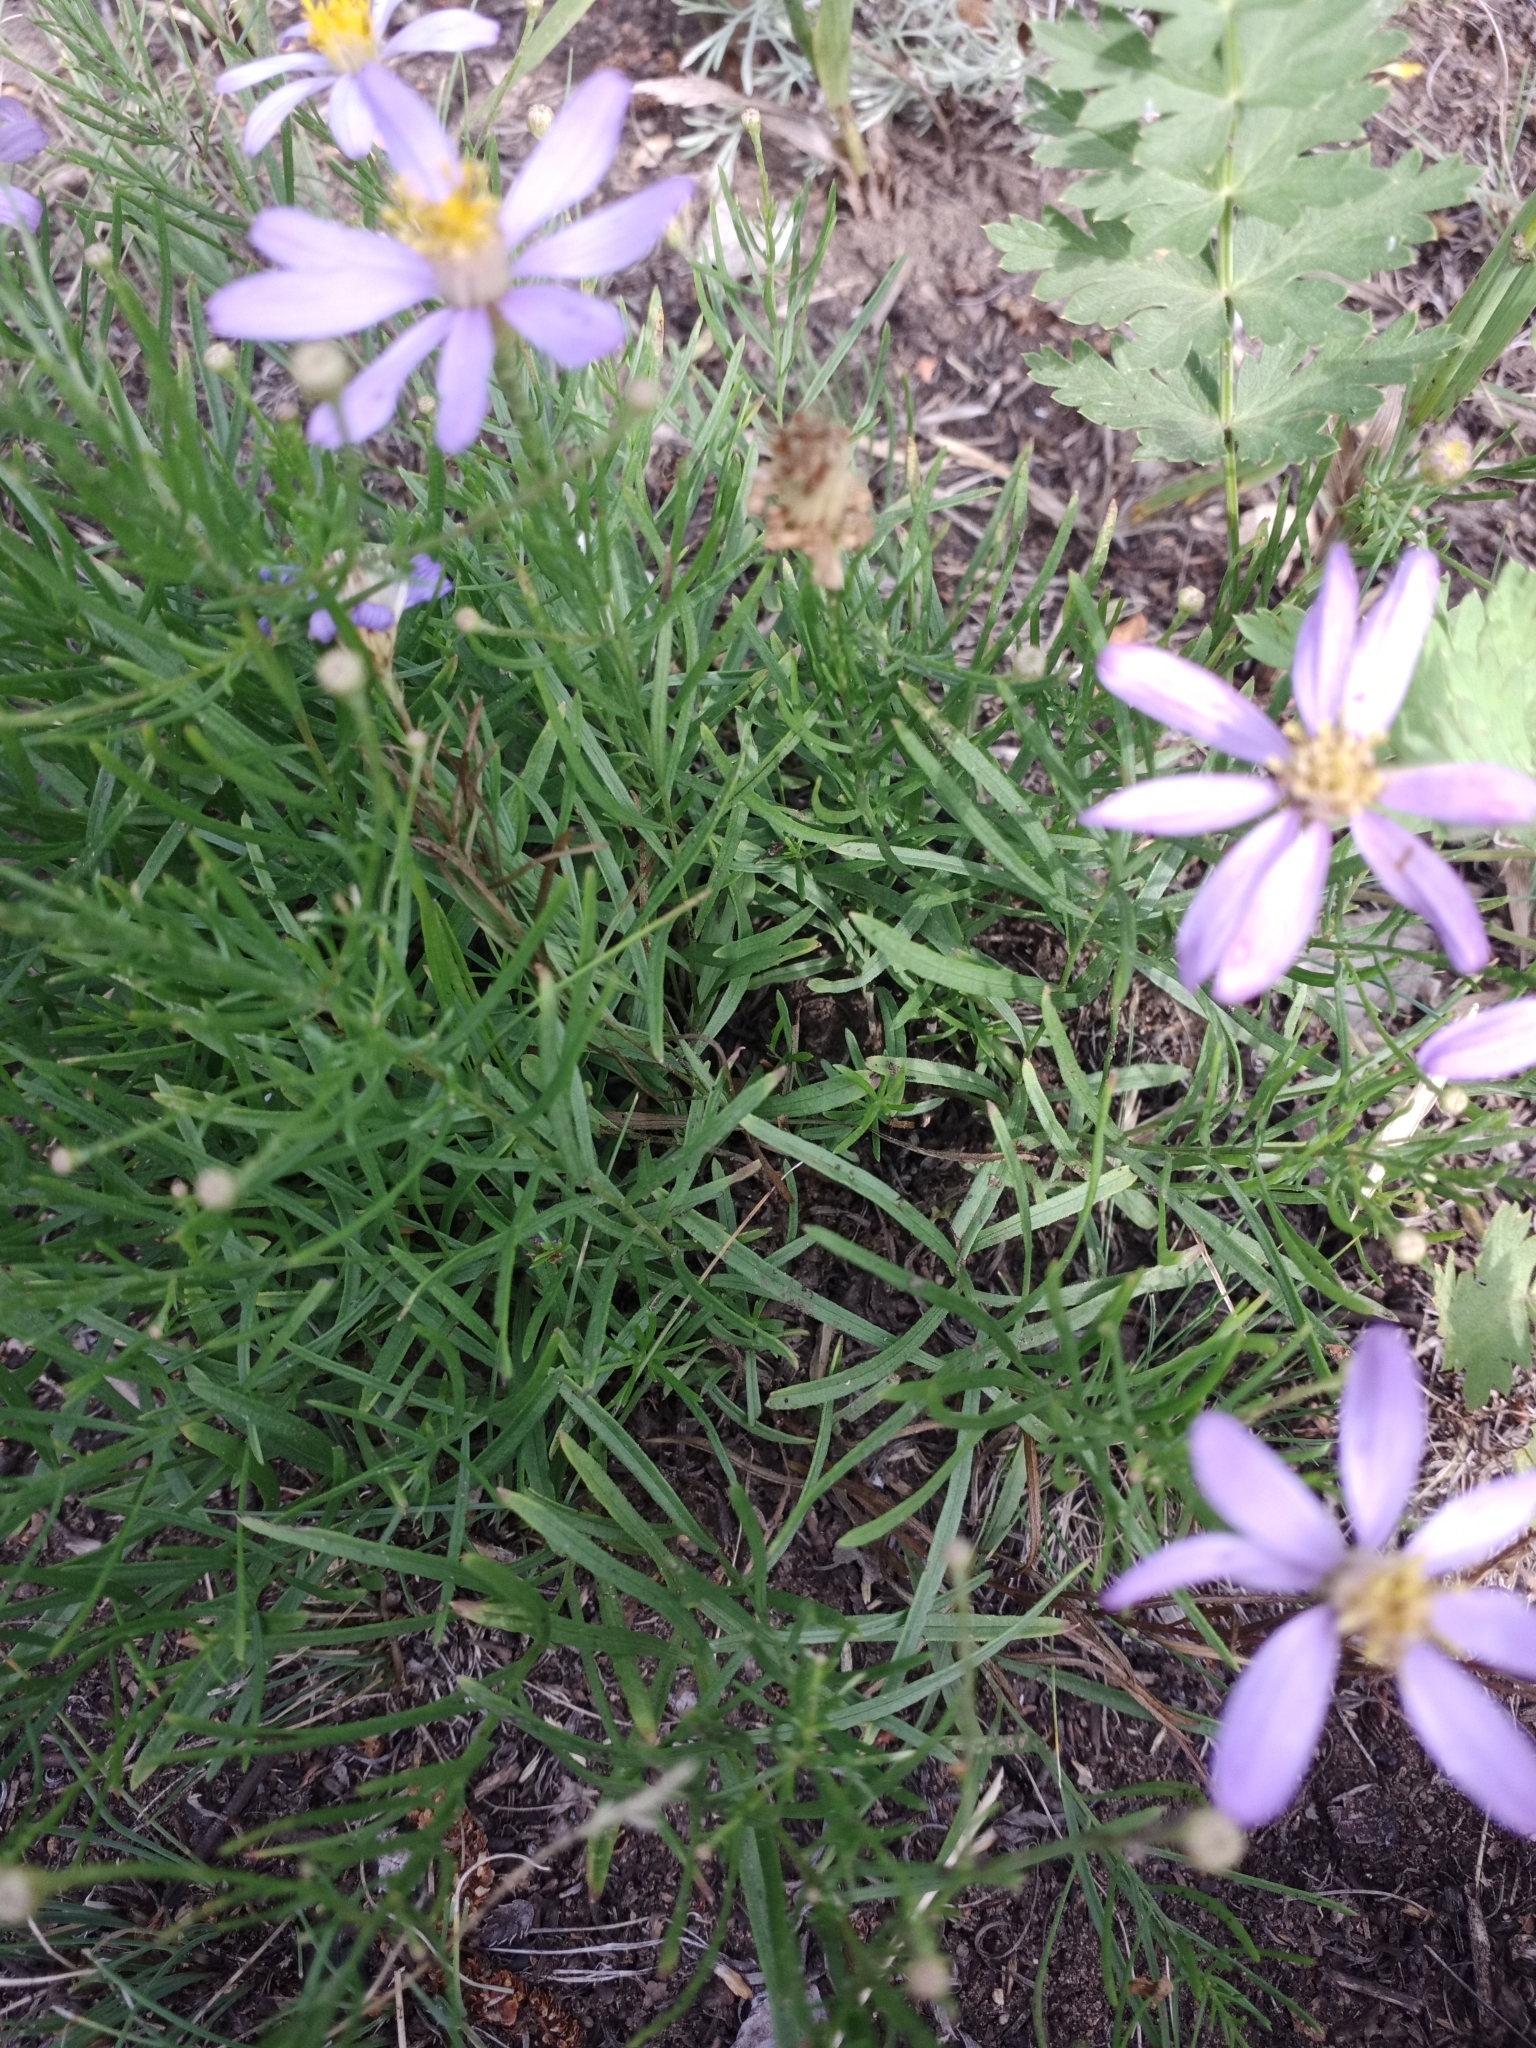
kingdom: Plantae
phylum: Tracheophyta
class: Magnoliopsida
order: Asterales
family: Asteraceae
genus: Galatella
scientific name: Galatella angustissima
